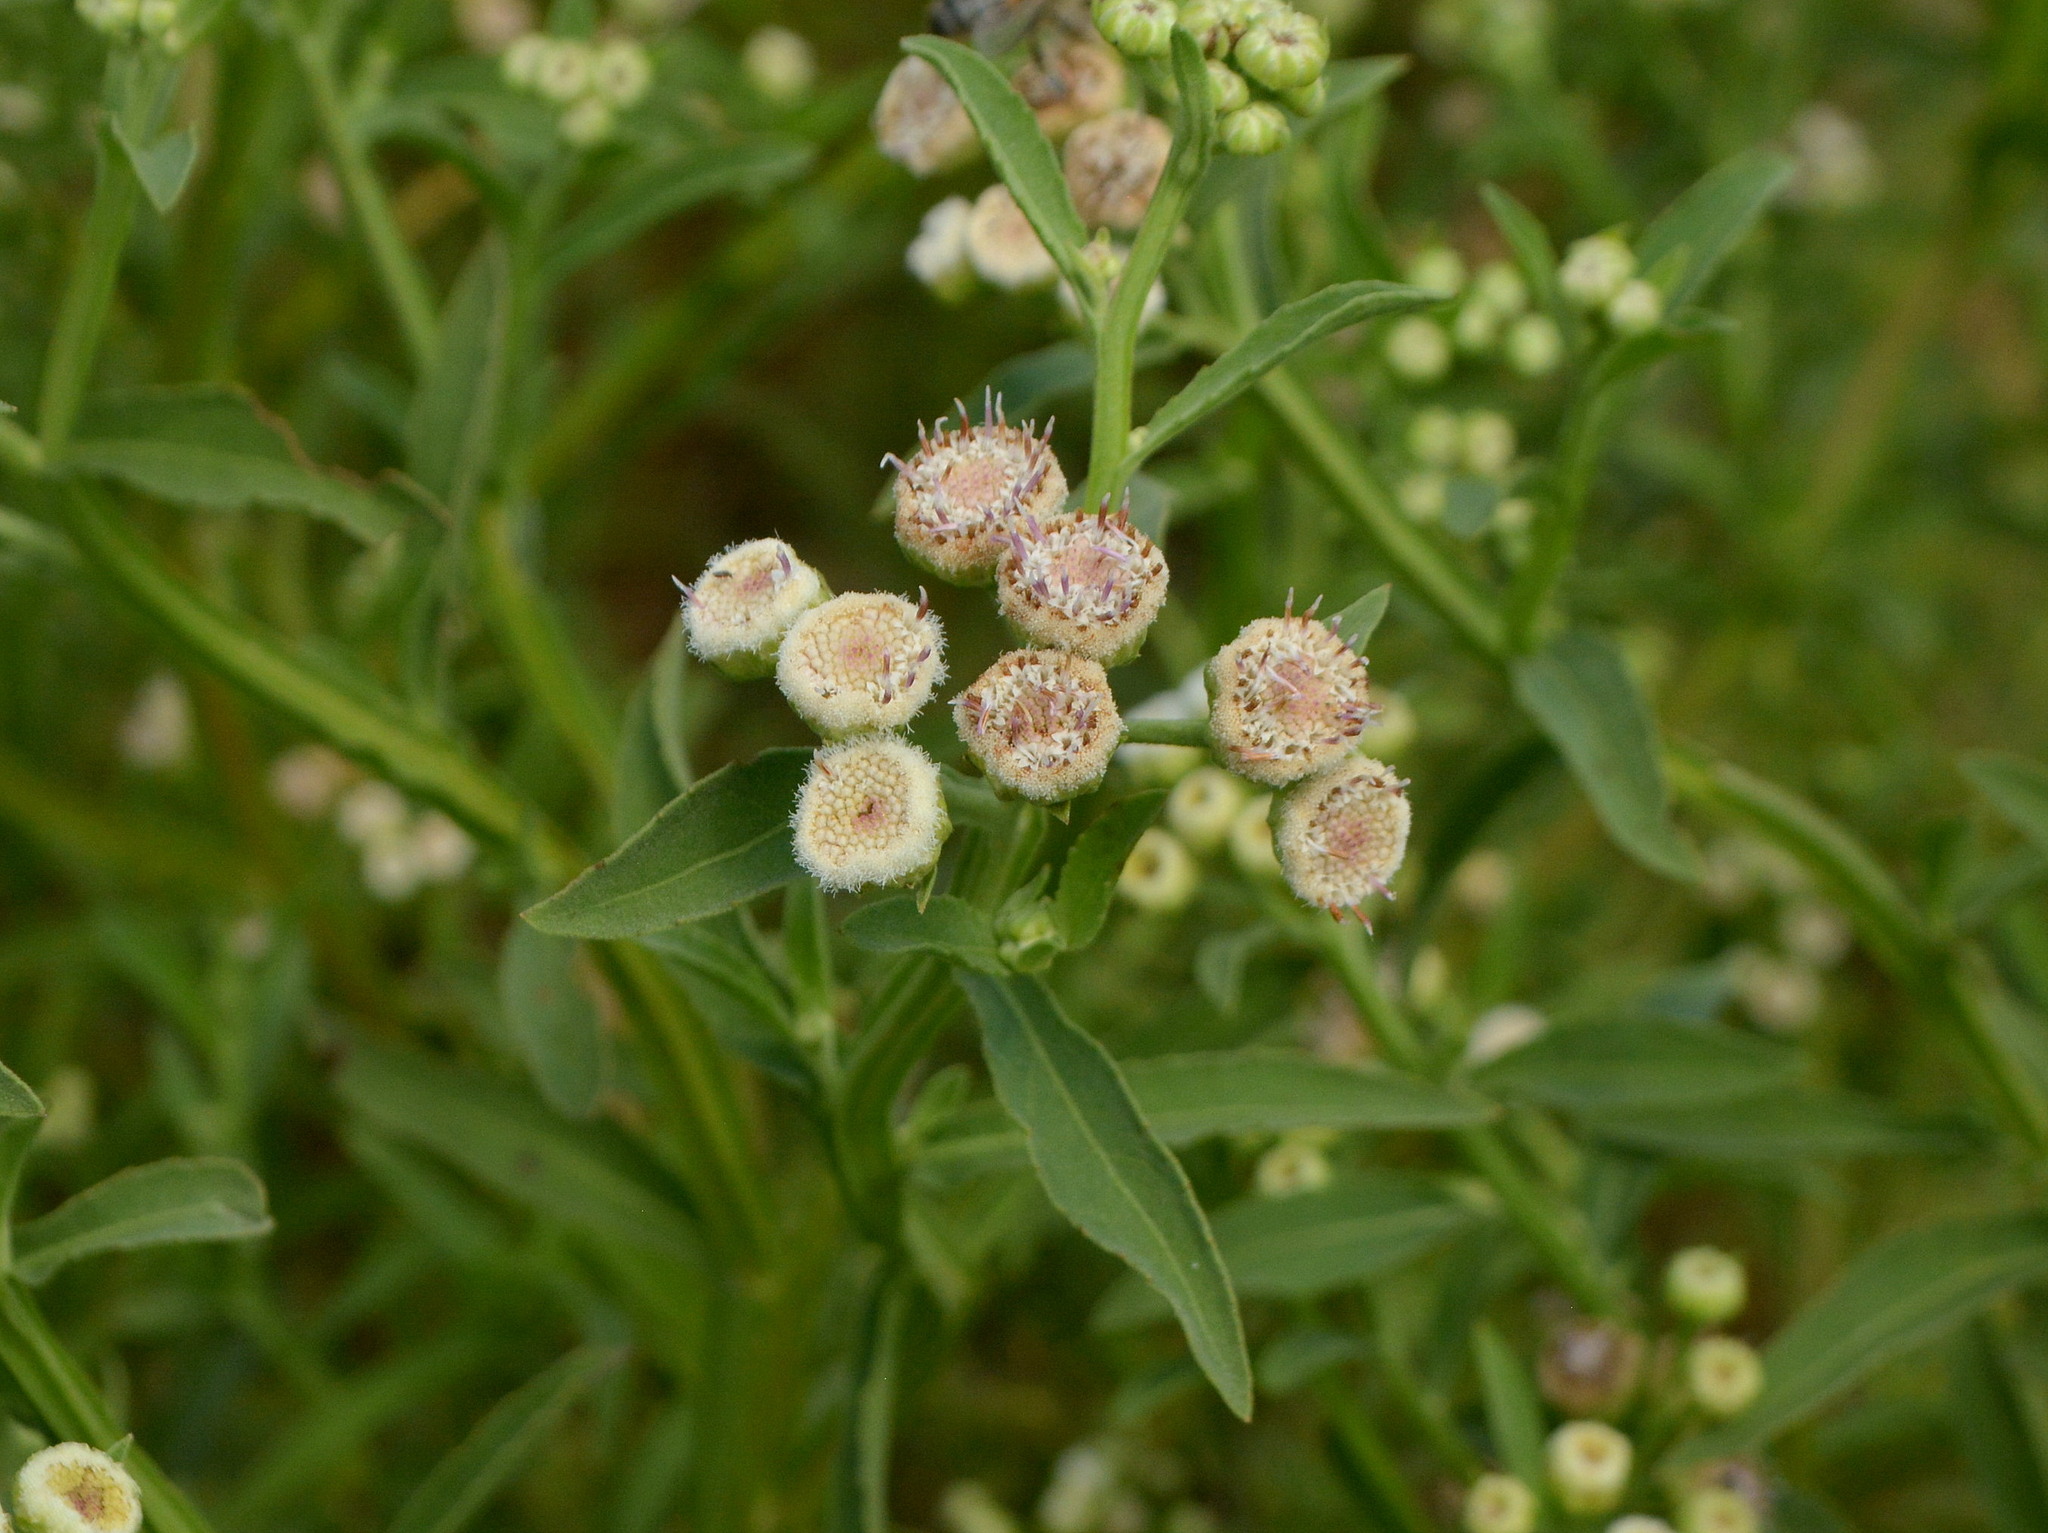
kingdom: Plantae
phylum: Tracheophyta
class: Magnoliopsida
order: Asterales
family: Asteraceae
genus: Pluchea
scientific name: Pluchea sagittalis
